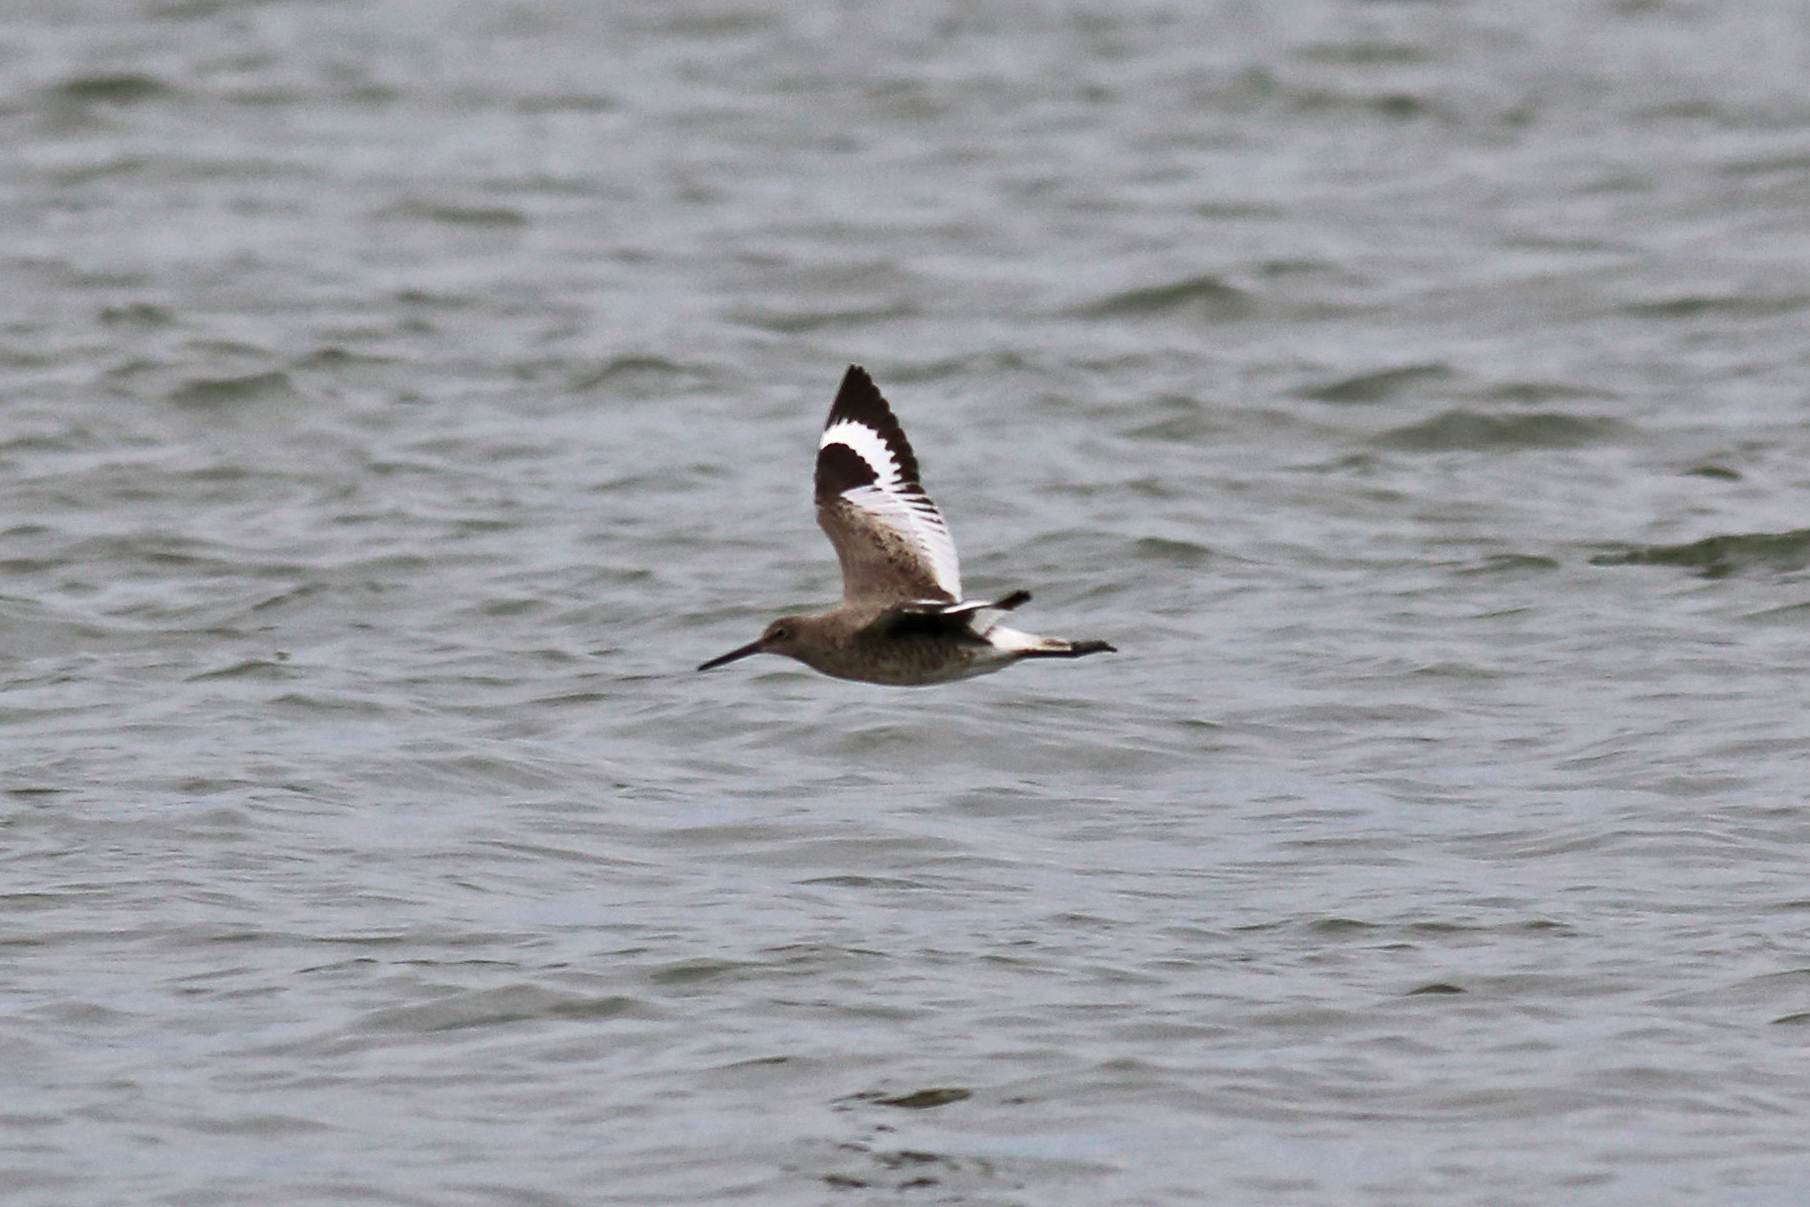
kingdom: Animalia
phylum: Chordata
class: Aves
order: Charadriiformes
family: Scolopacidae
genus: Tringa
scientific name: Tringa semipalmata
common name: Willet
